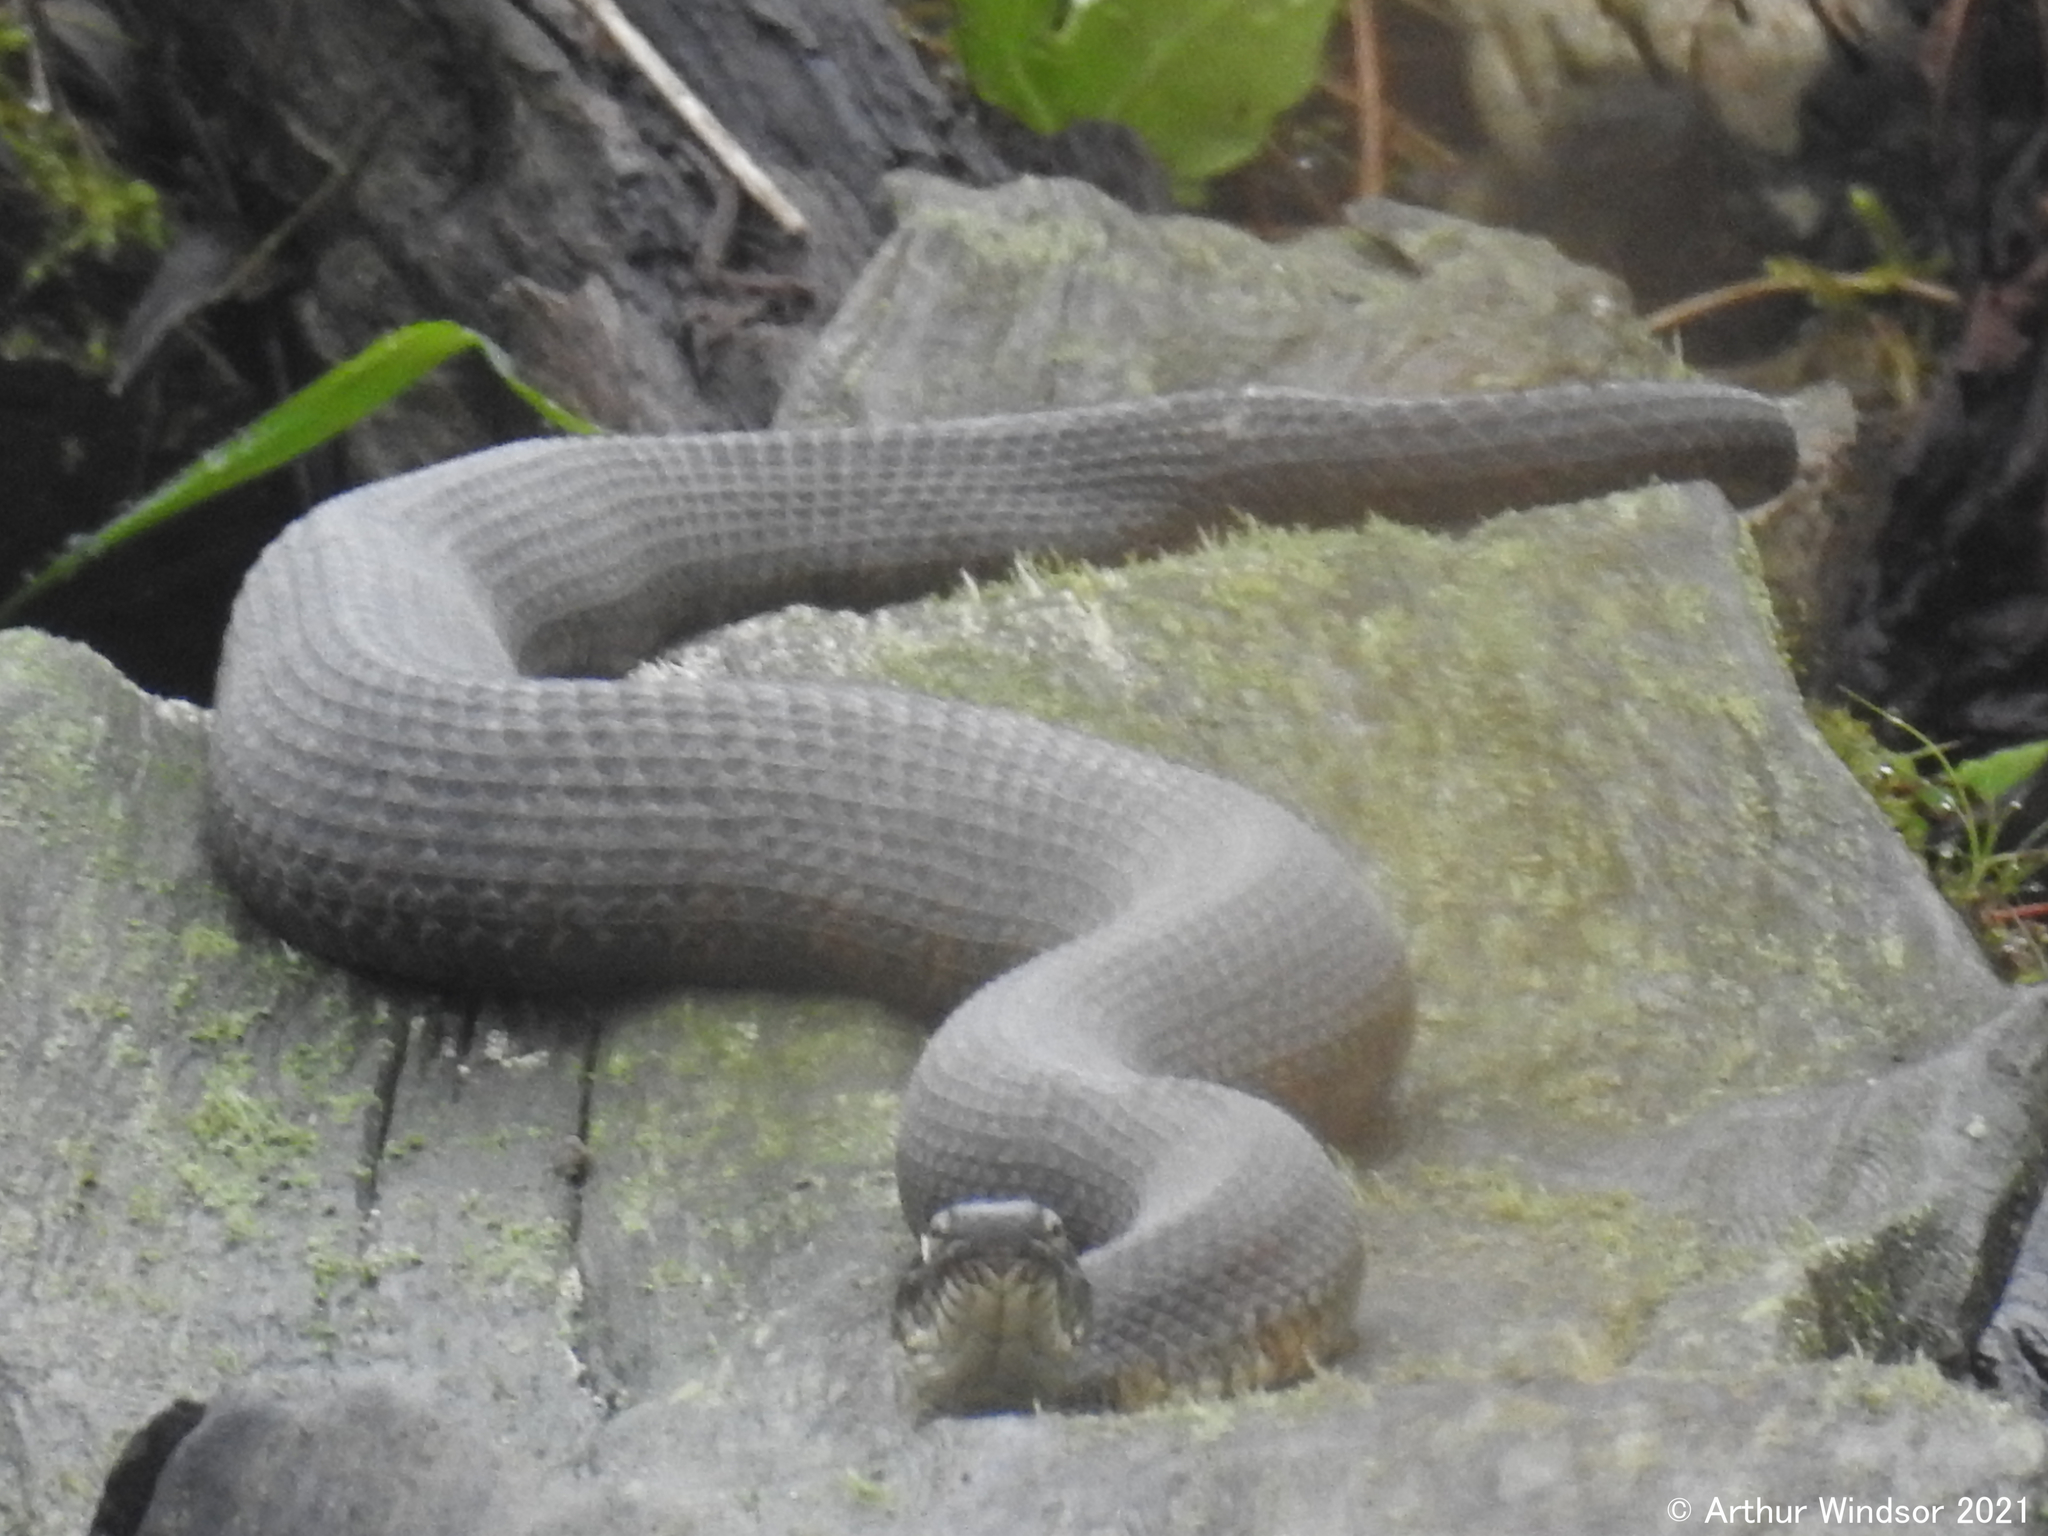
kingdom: Animalia
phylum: Chordata
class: Squamata
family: Colubridae
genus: Nerodia
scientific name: Nerodia sipedon
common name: Northern water snake
